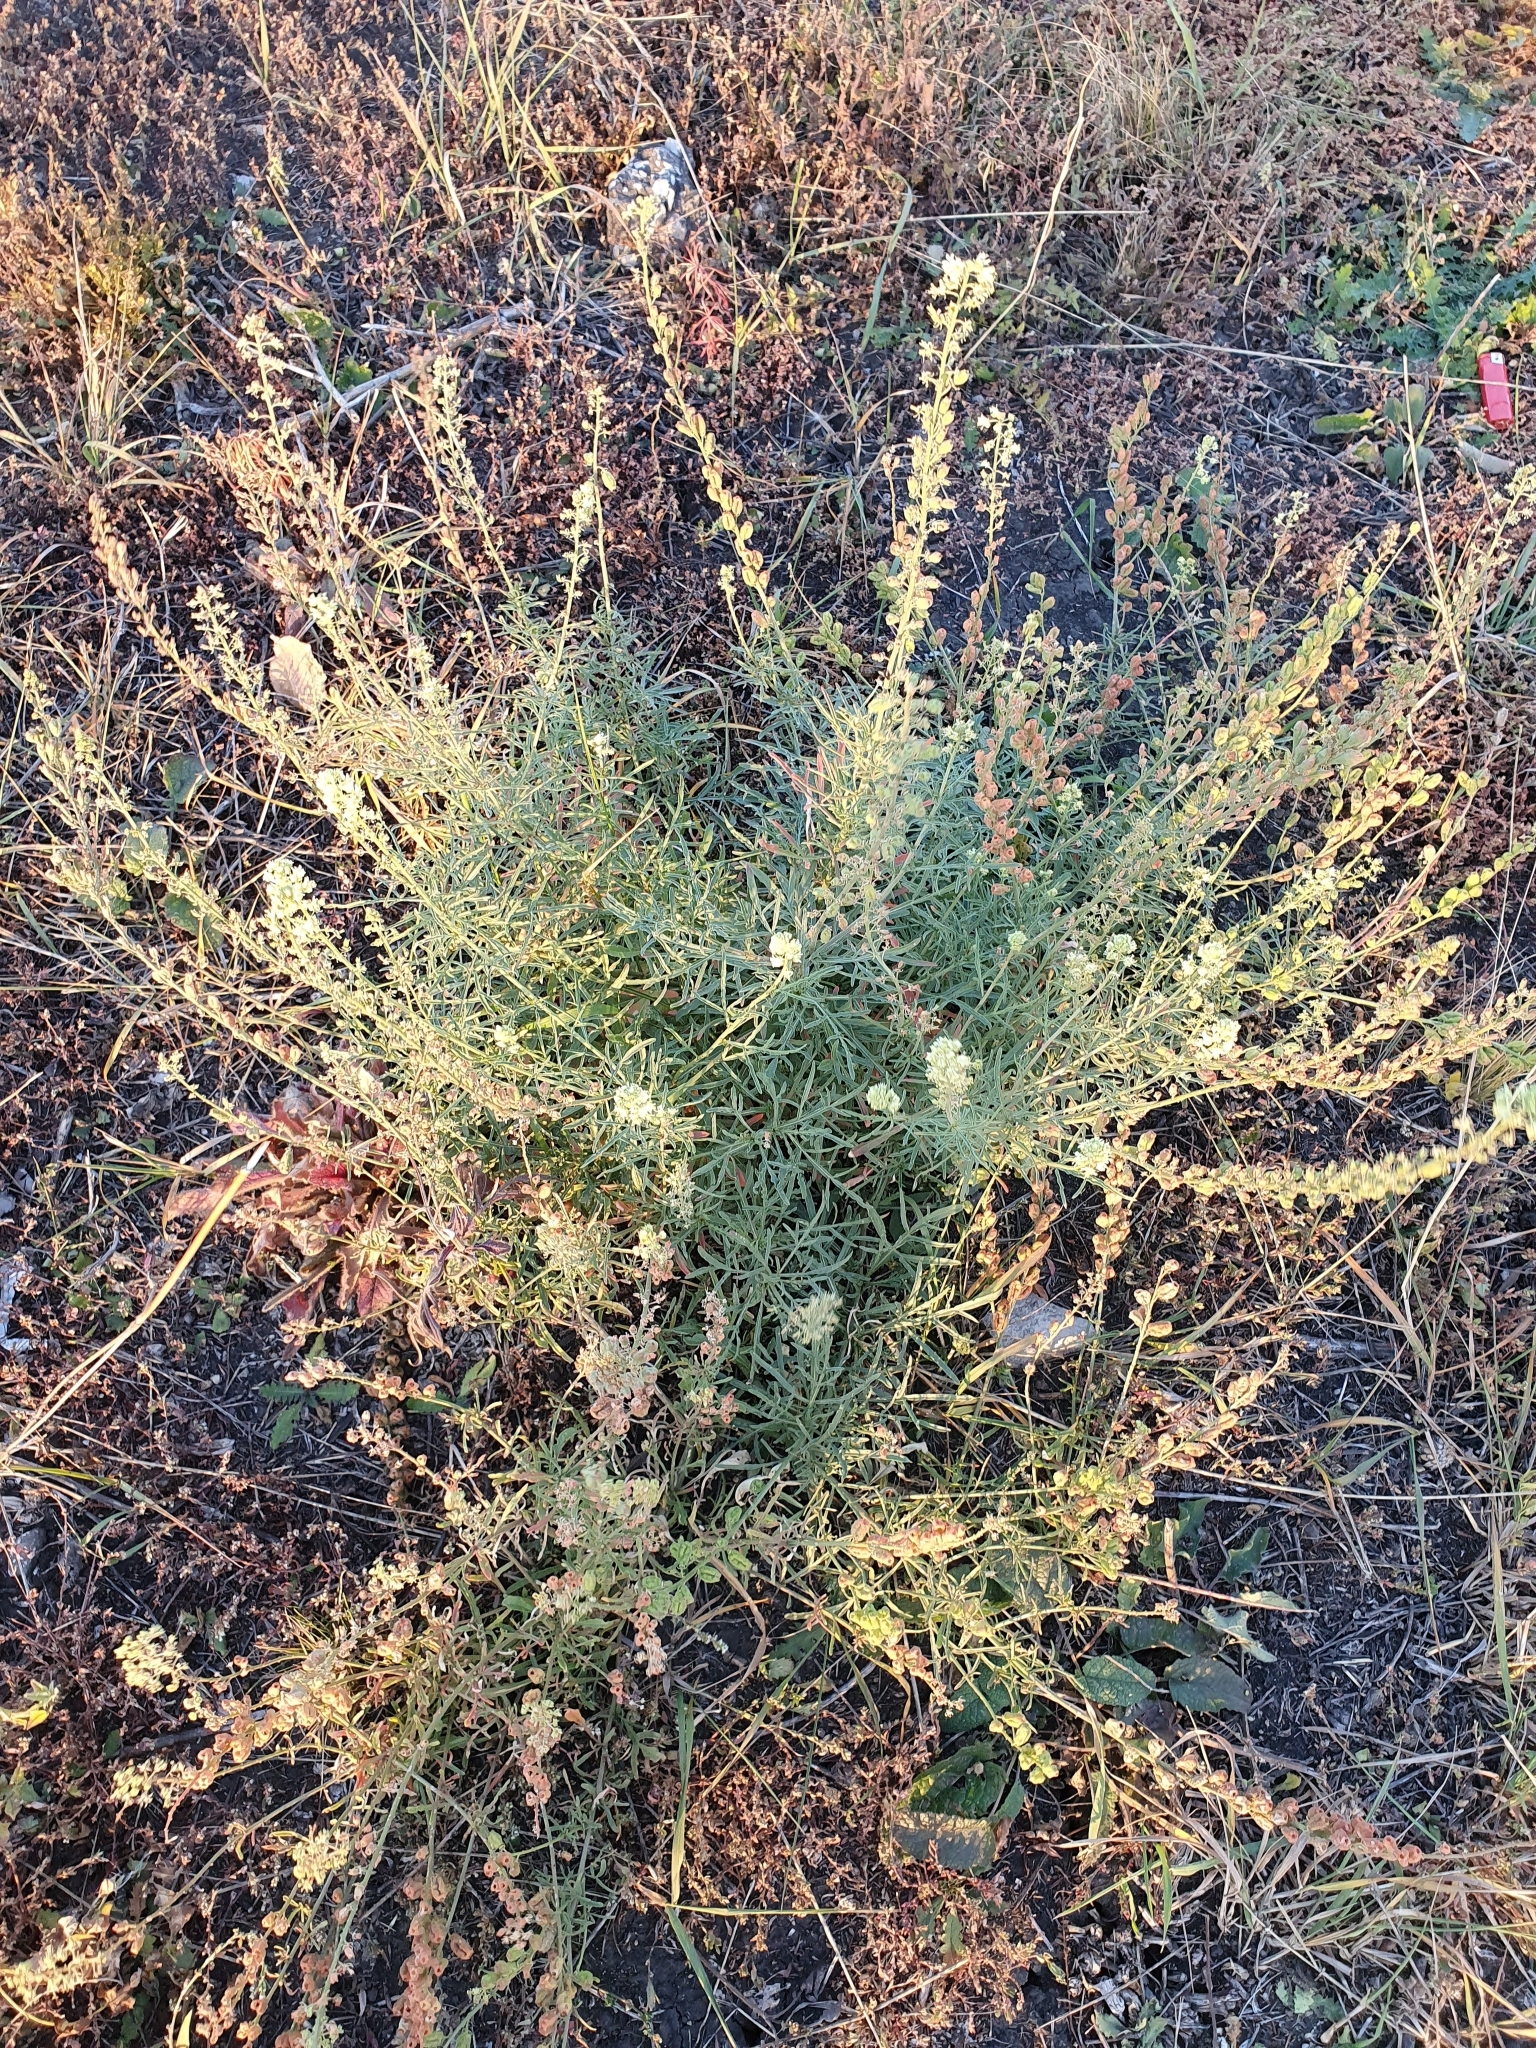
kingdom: Plantae
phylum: Tracheophyta
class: Magnoliopsida
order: Brassicales
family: Resedaceae
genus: Reseda
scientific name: Reseda lutea
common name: Wild mignonette
